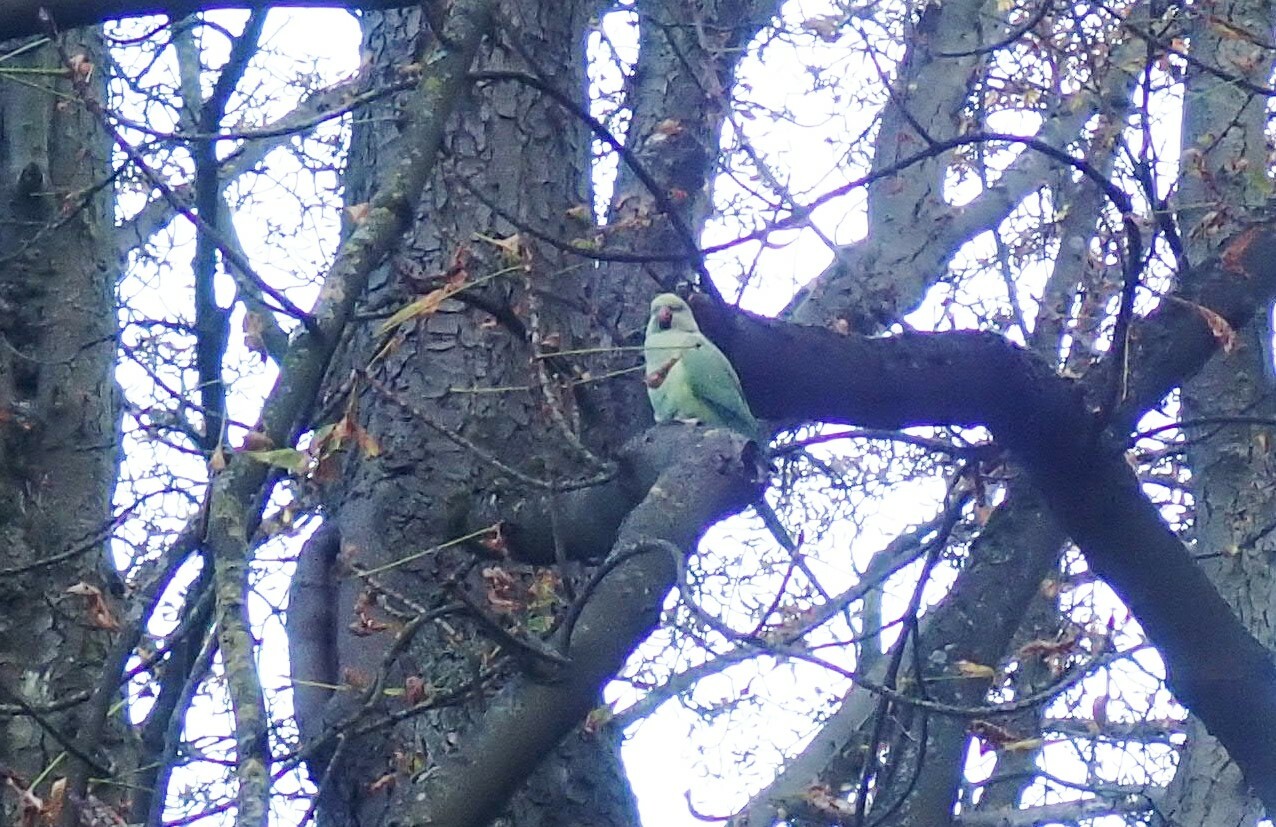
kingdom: Animalia
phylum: Chordata
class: Aves
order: Psittaciformes
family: Psittacidae
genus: Psittacula
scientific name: Psittacula krameri
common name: Rose-ringed parakeet
